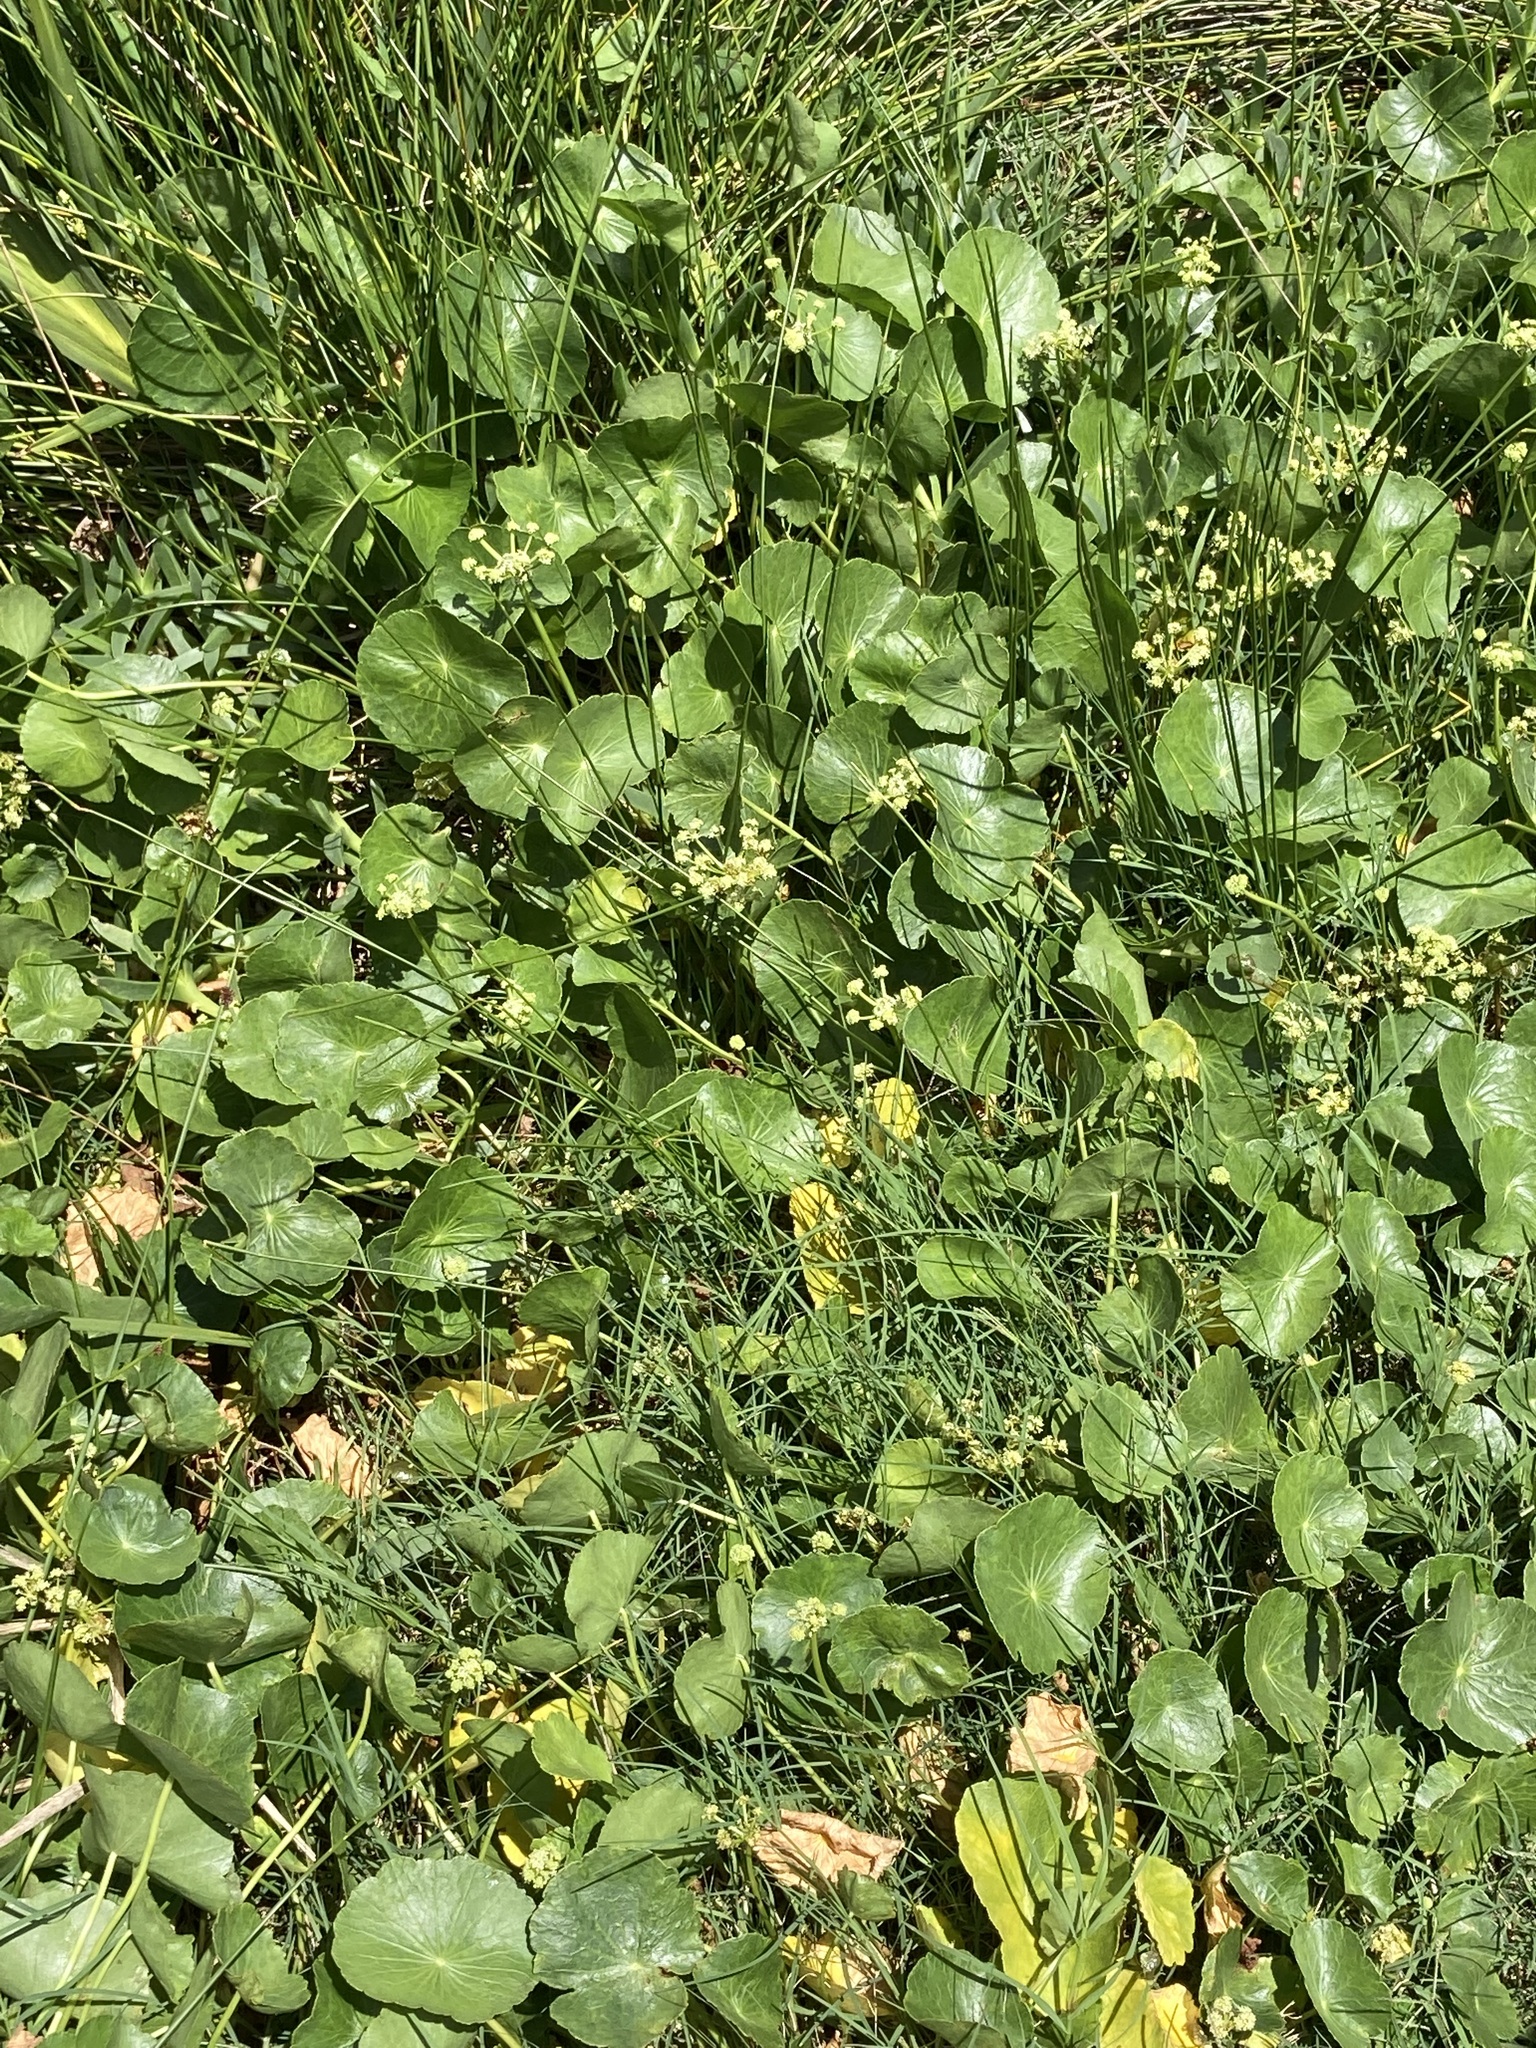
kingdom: Plantae
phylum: Tracheophyta
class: Magnoliopsida
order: Apiales
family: Araliaceae
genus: Hydrocotyle
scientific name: Hydrocotyle bonariensis
